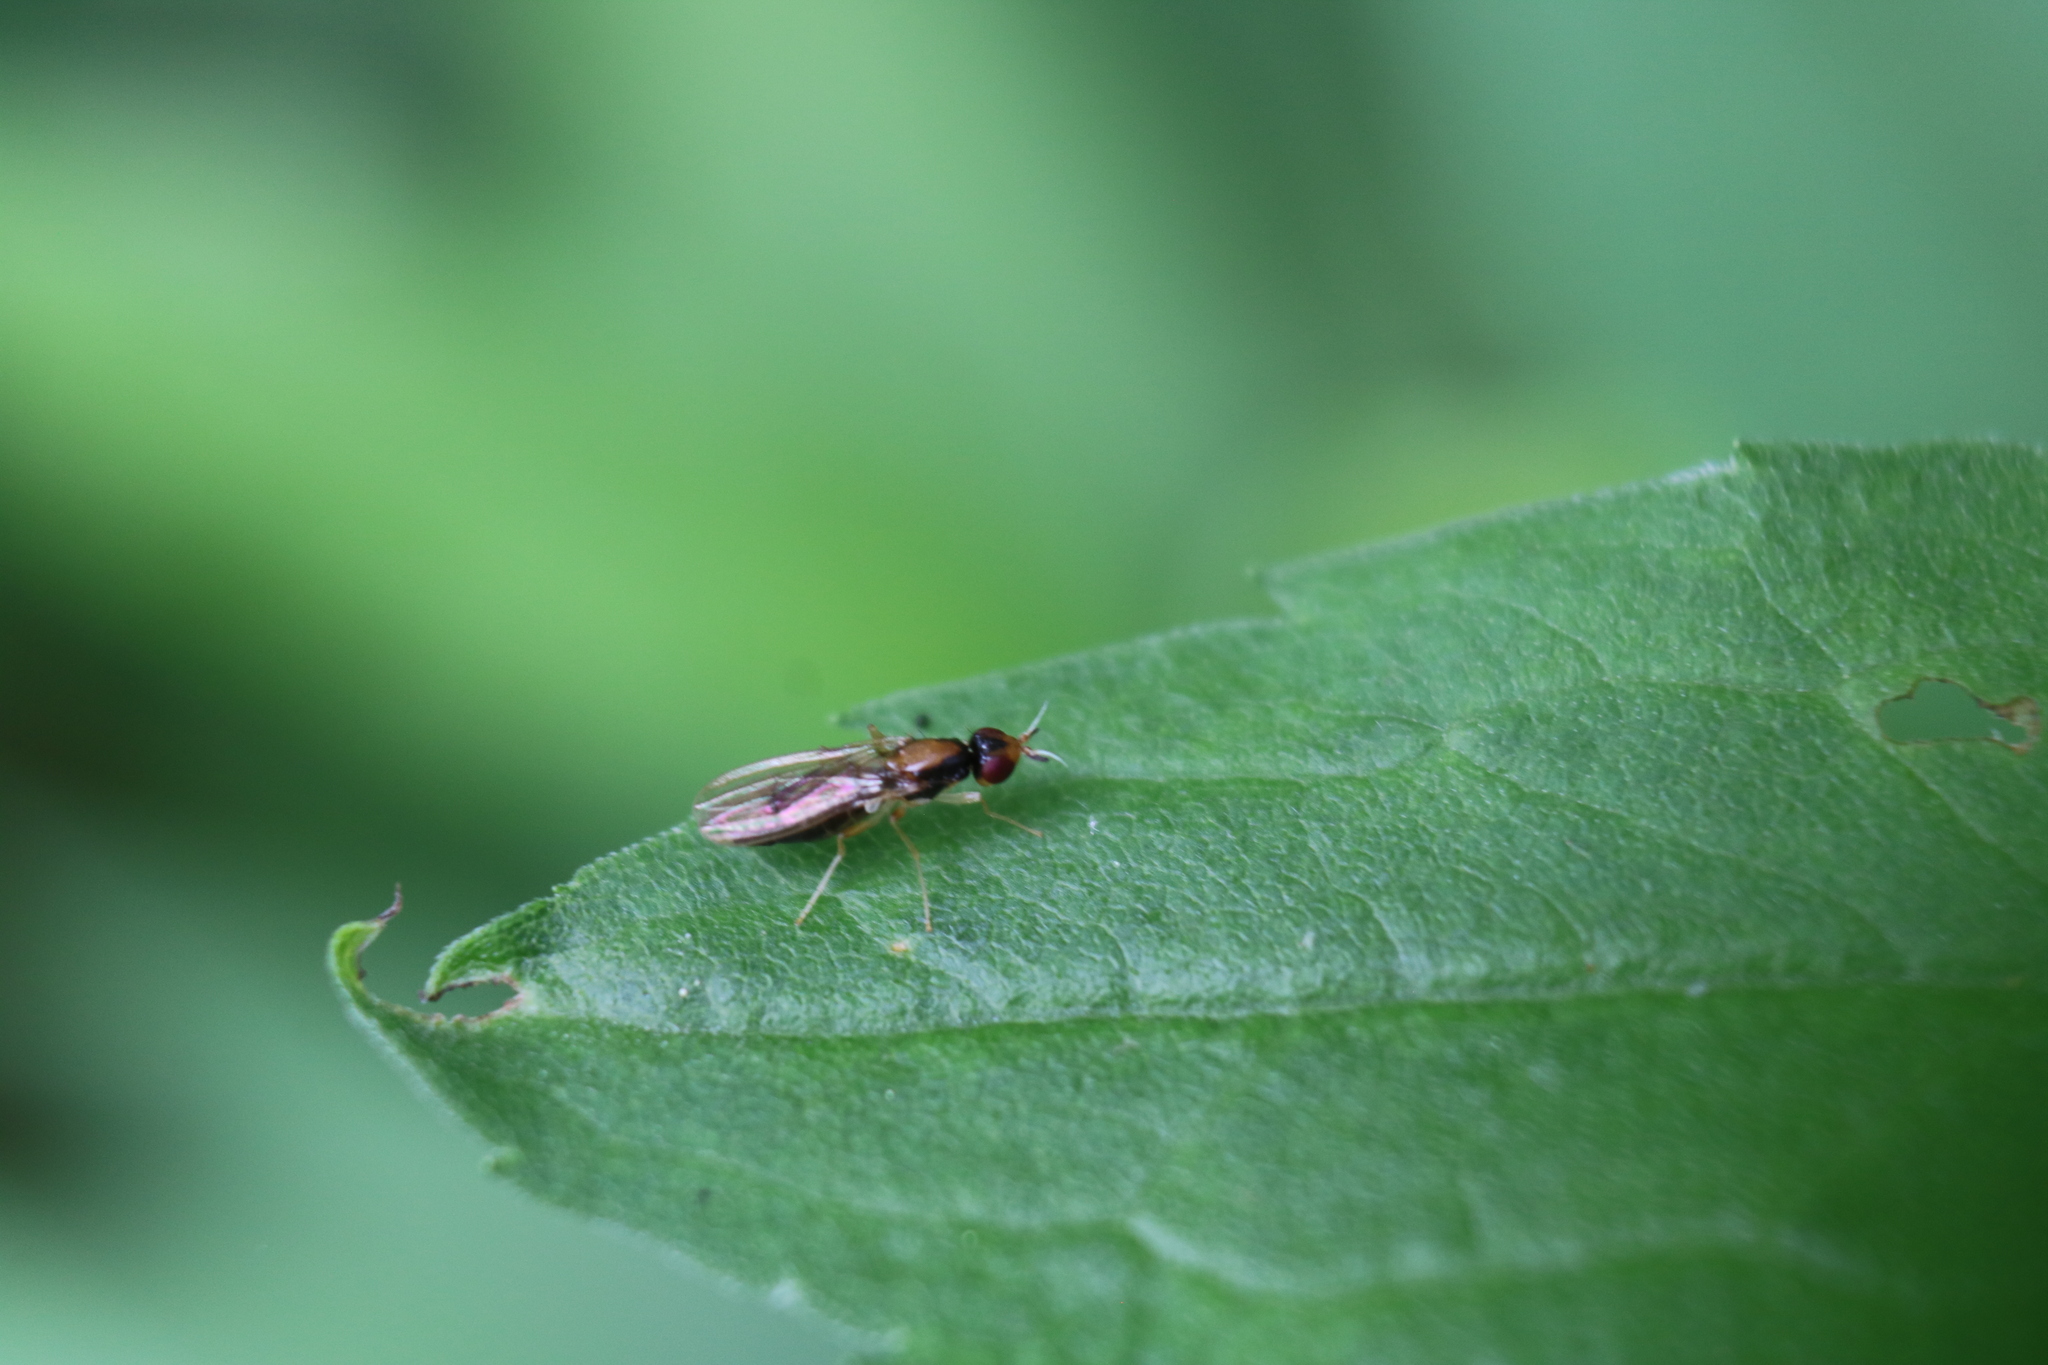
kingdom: Animalia
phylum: Arthropoda
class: Insecta
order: Diptera
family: Psilidae
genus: Psila
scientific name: Psila collaris
